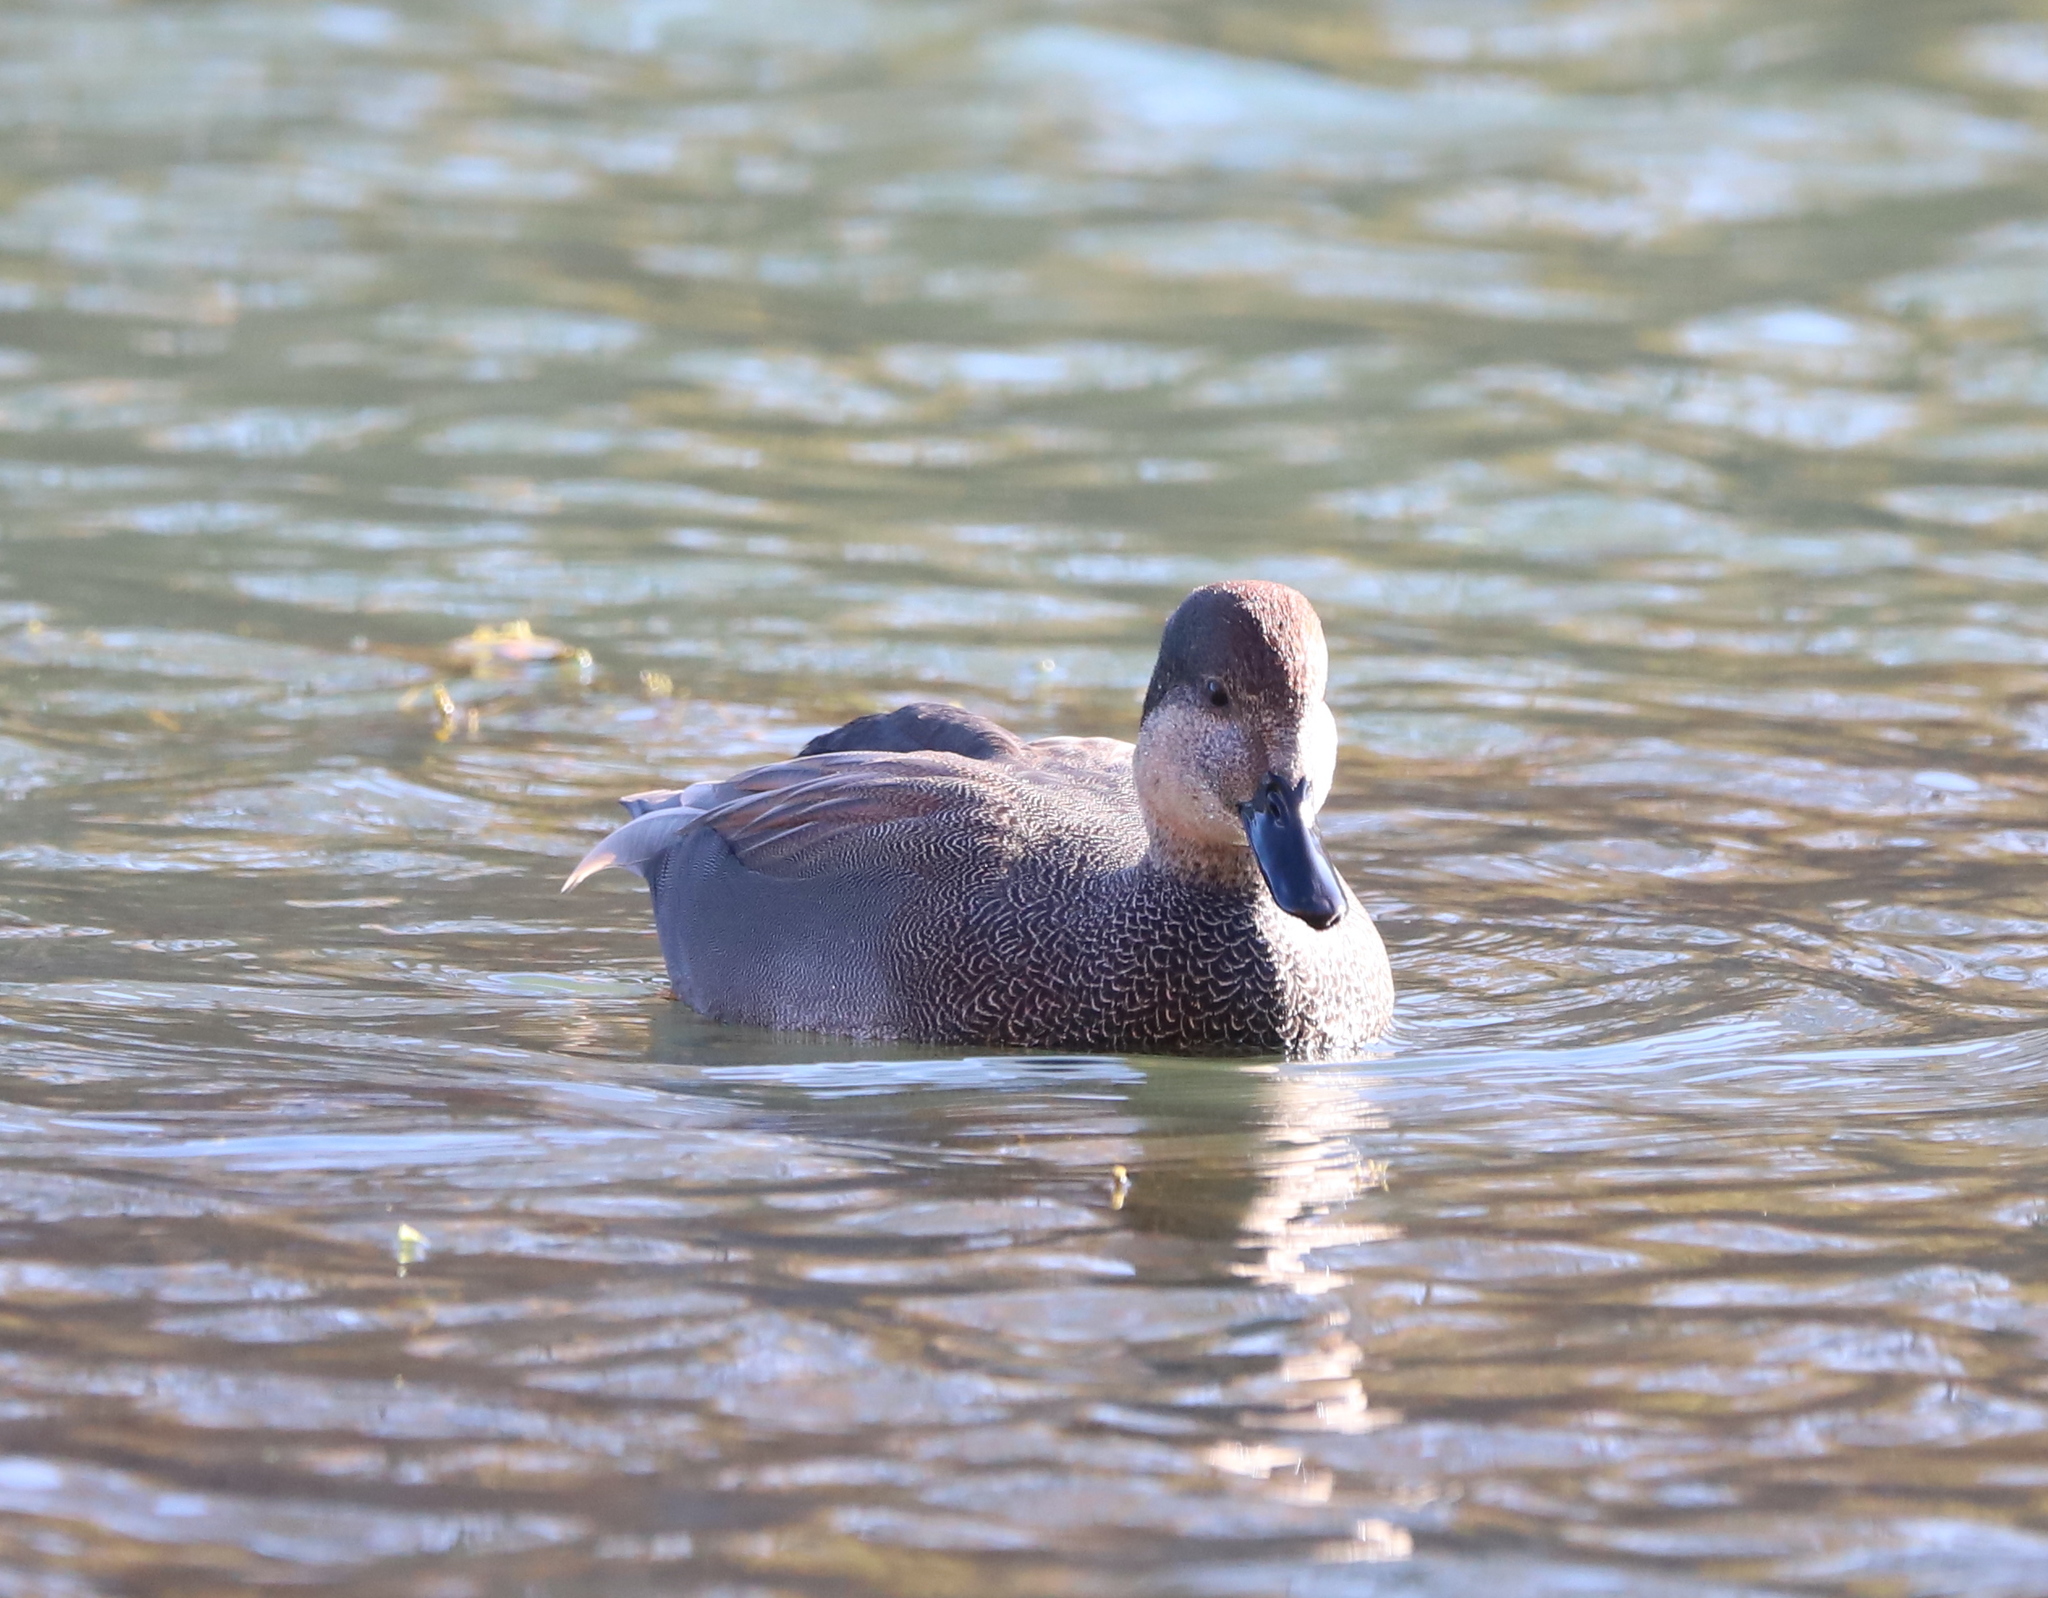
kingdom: Animalia
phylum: Chordata
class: Aves
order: Anseriformes
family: Anatidae
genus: Mareca
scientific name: Mareca strepera
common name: Gadwall
